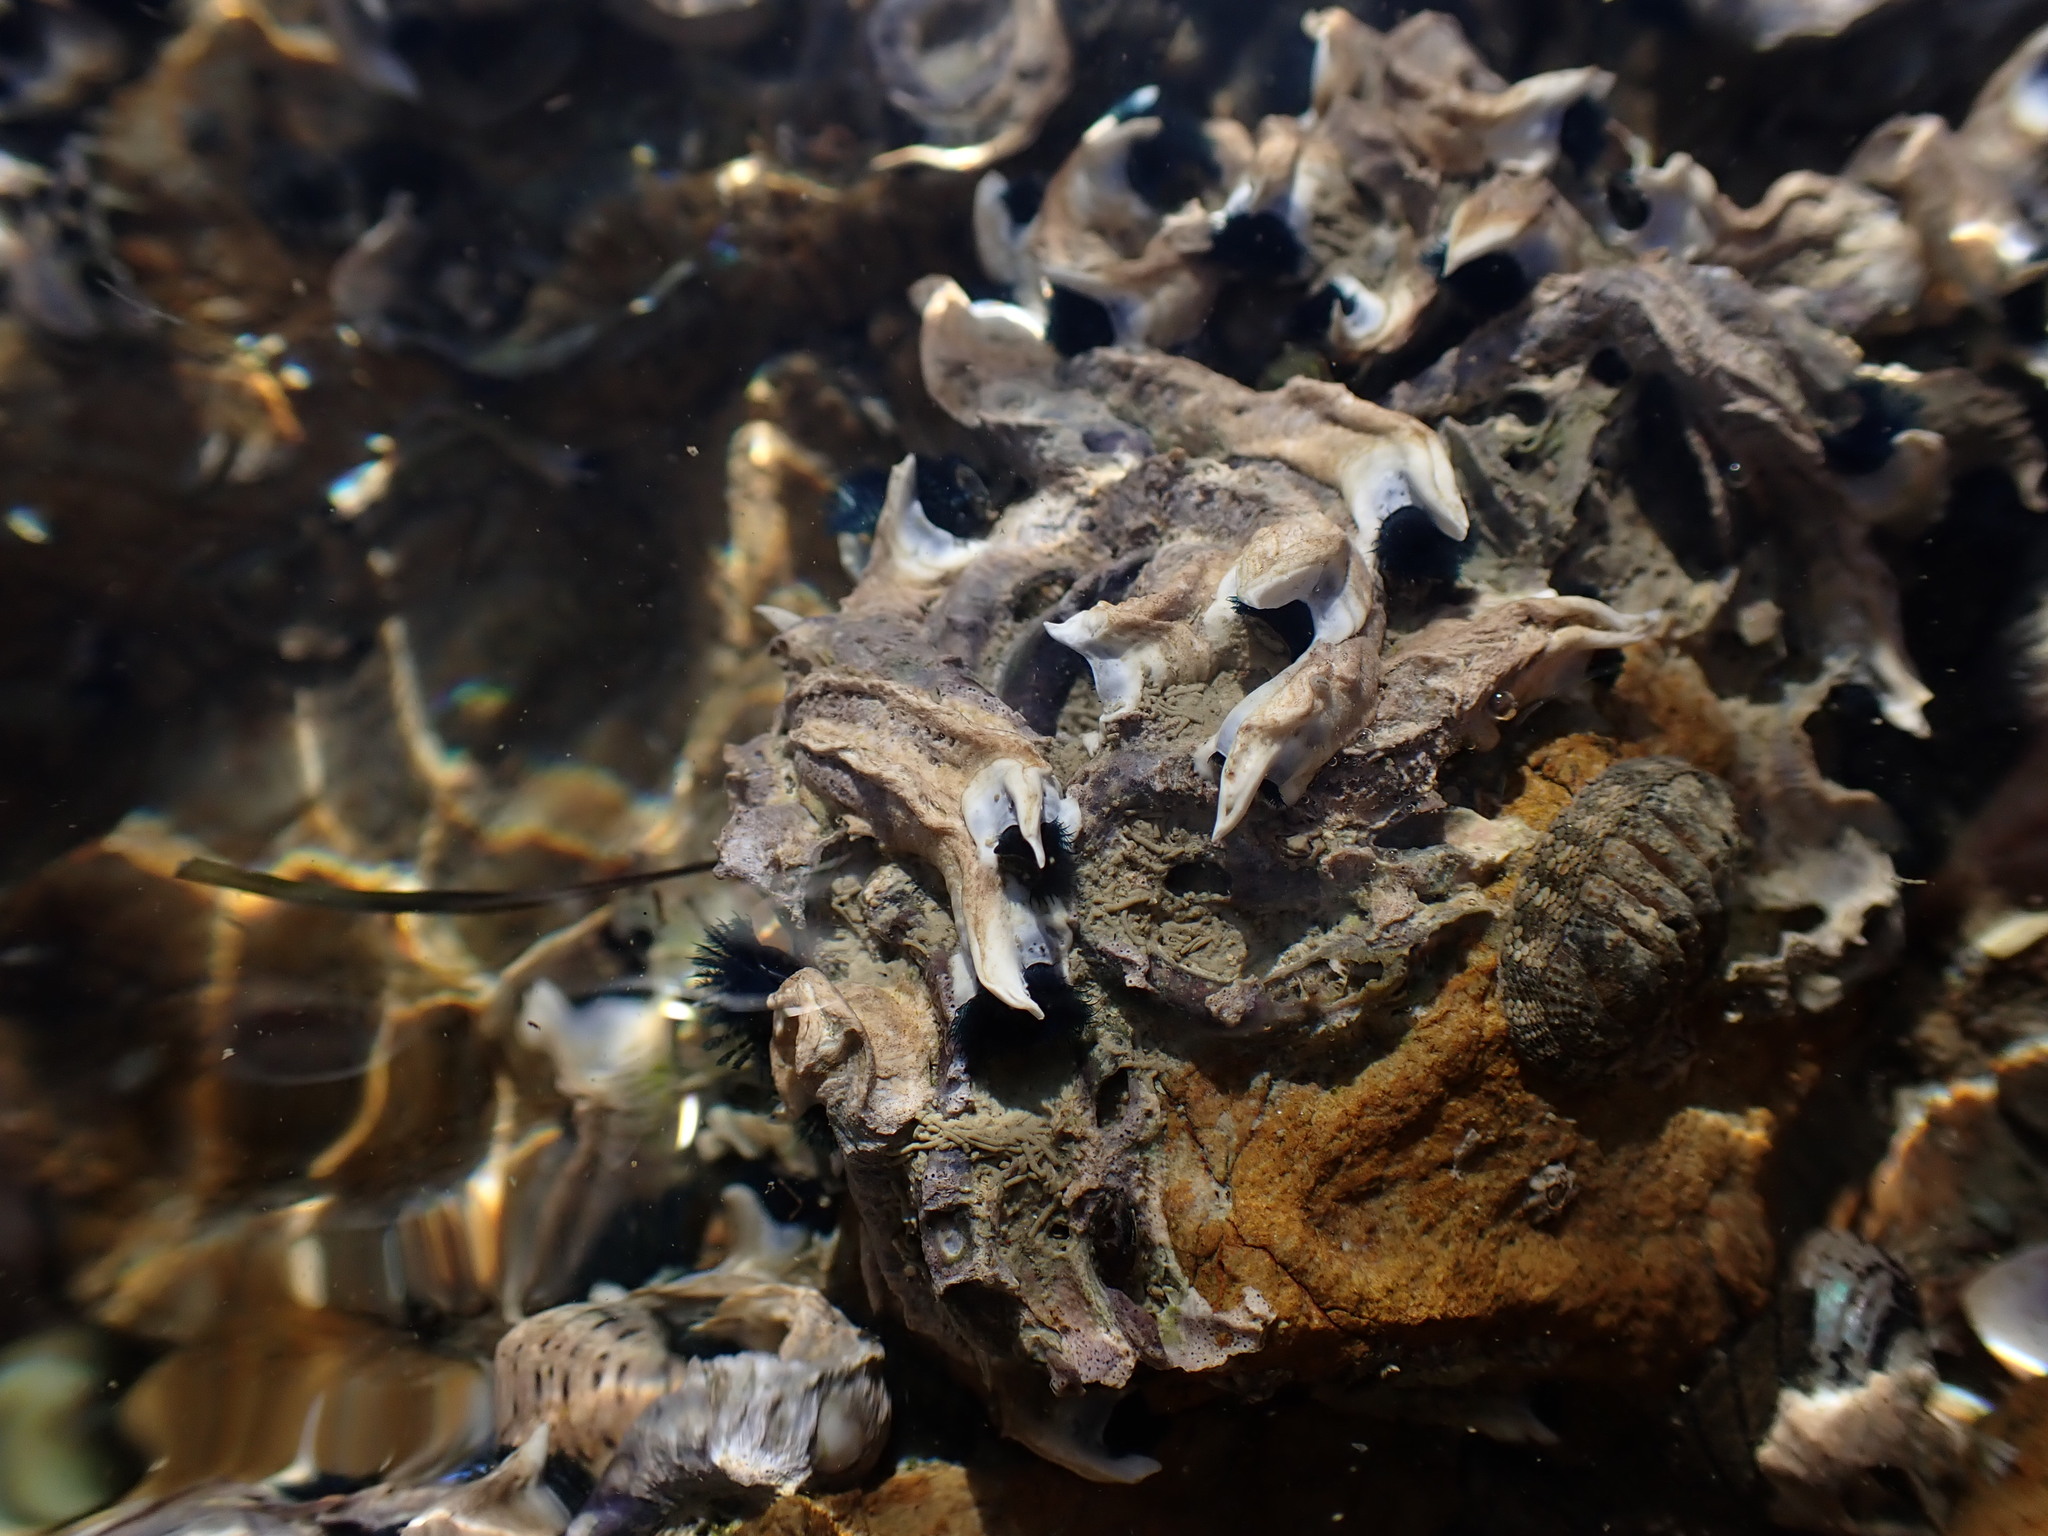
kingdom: Animalia
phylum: Annelida
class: Polychaeta
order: Sabellida
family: Serpulidae
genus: Spirobranchus
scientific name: Spirobranchus cariniferus
